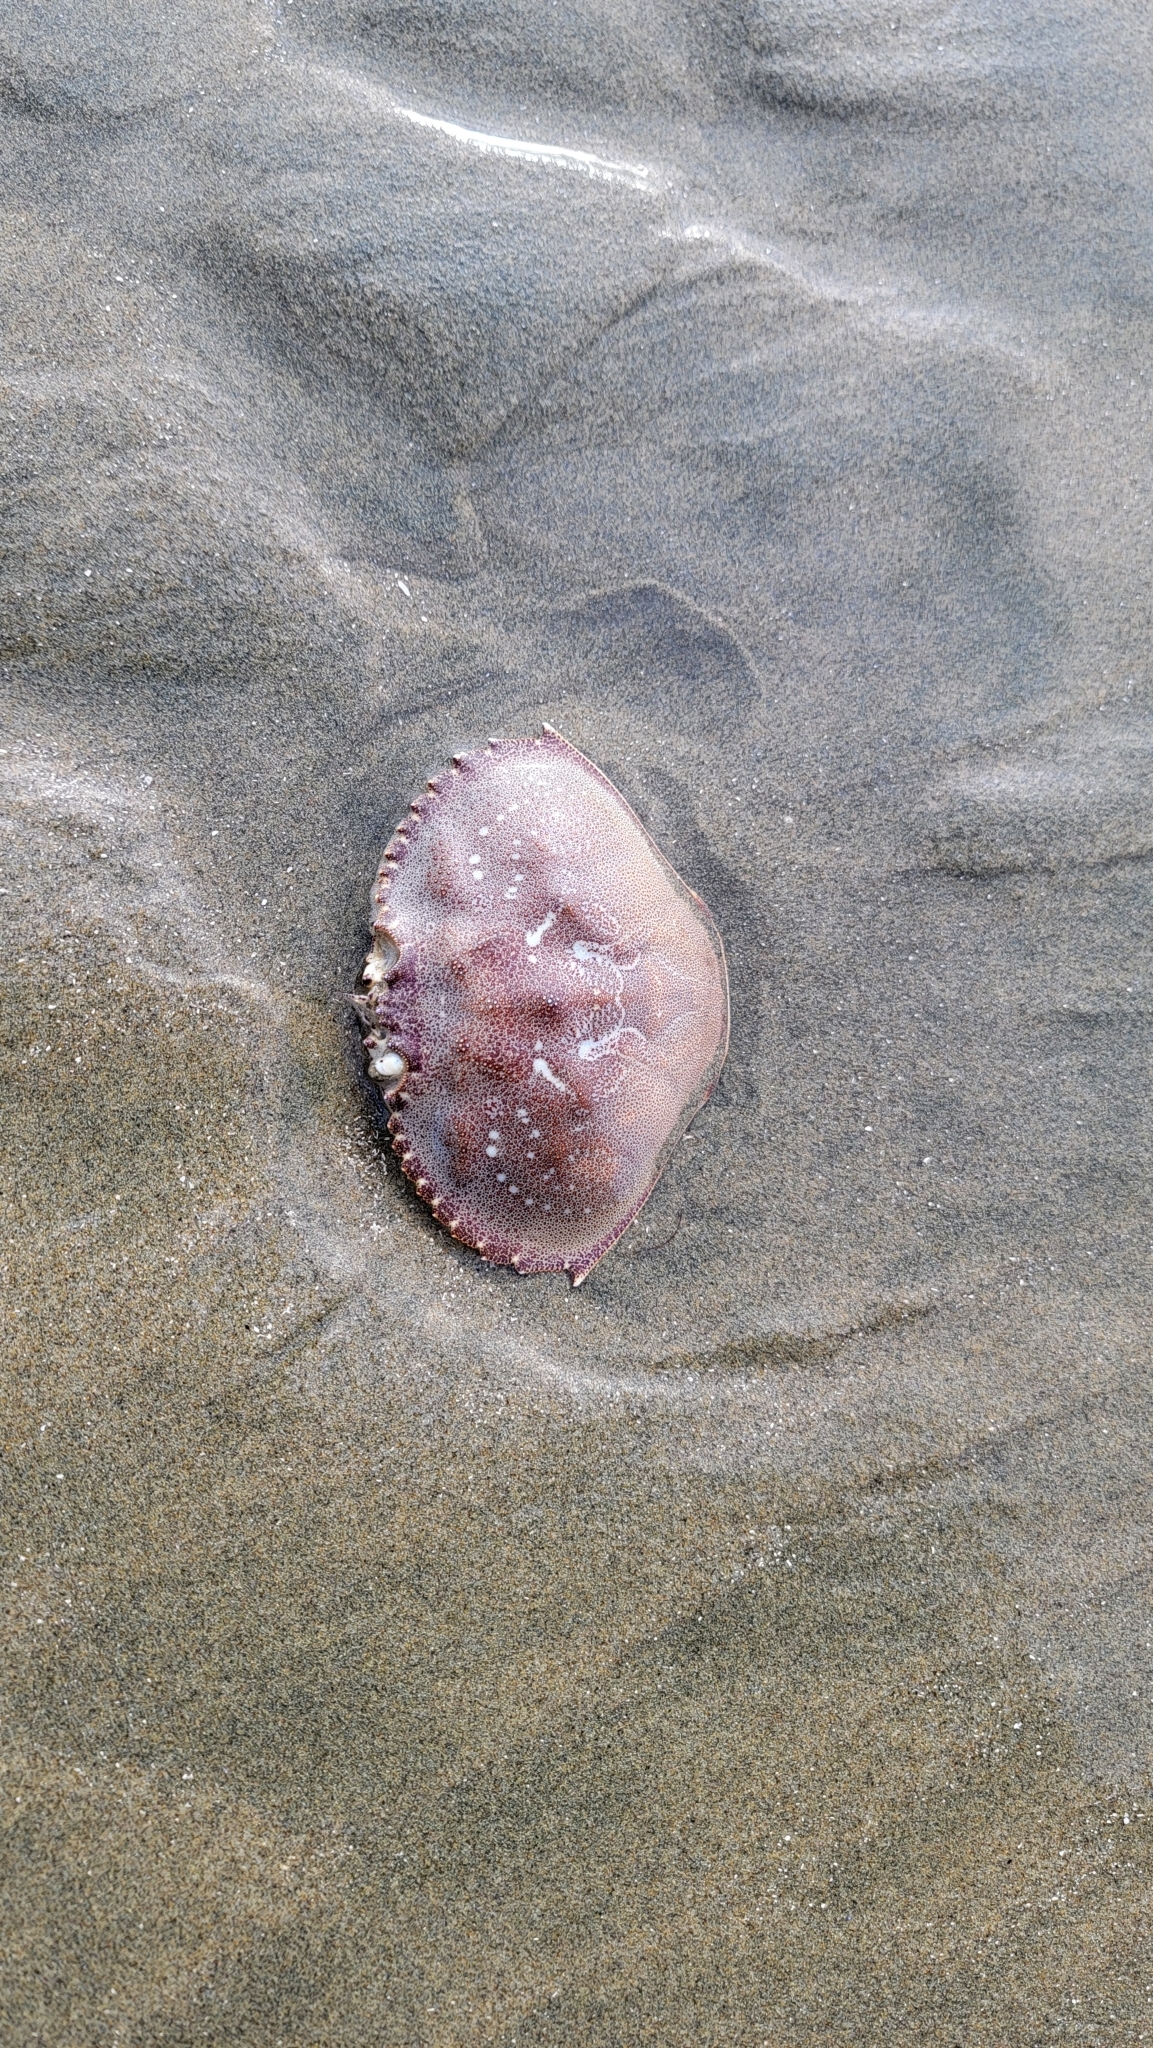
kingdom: Animalia
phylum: Arthropoda
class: Malacostraca
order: Decapoda
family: Cancridae
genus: Metacarcinus
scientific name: Metacarcinus magister
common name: Californian crab
